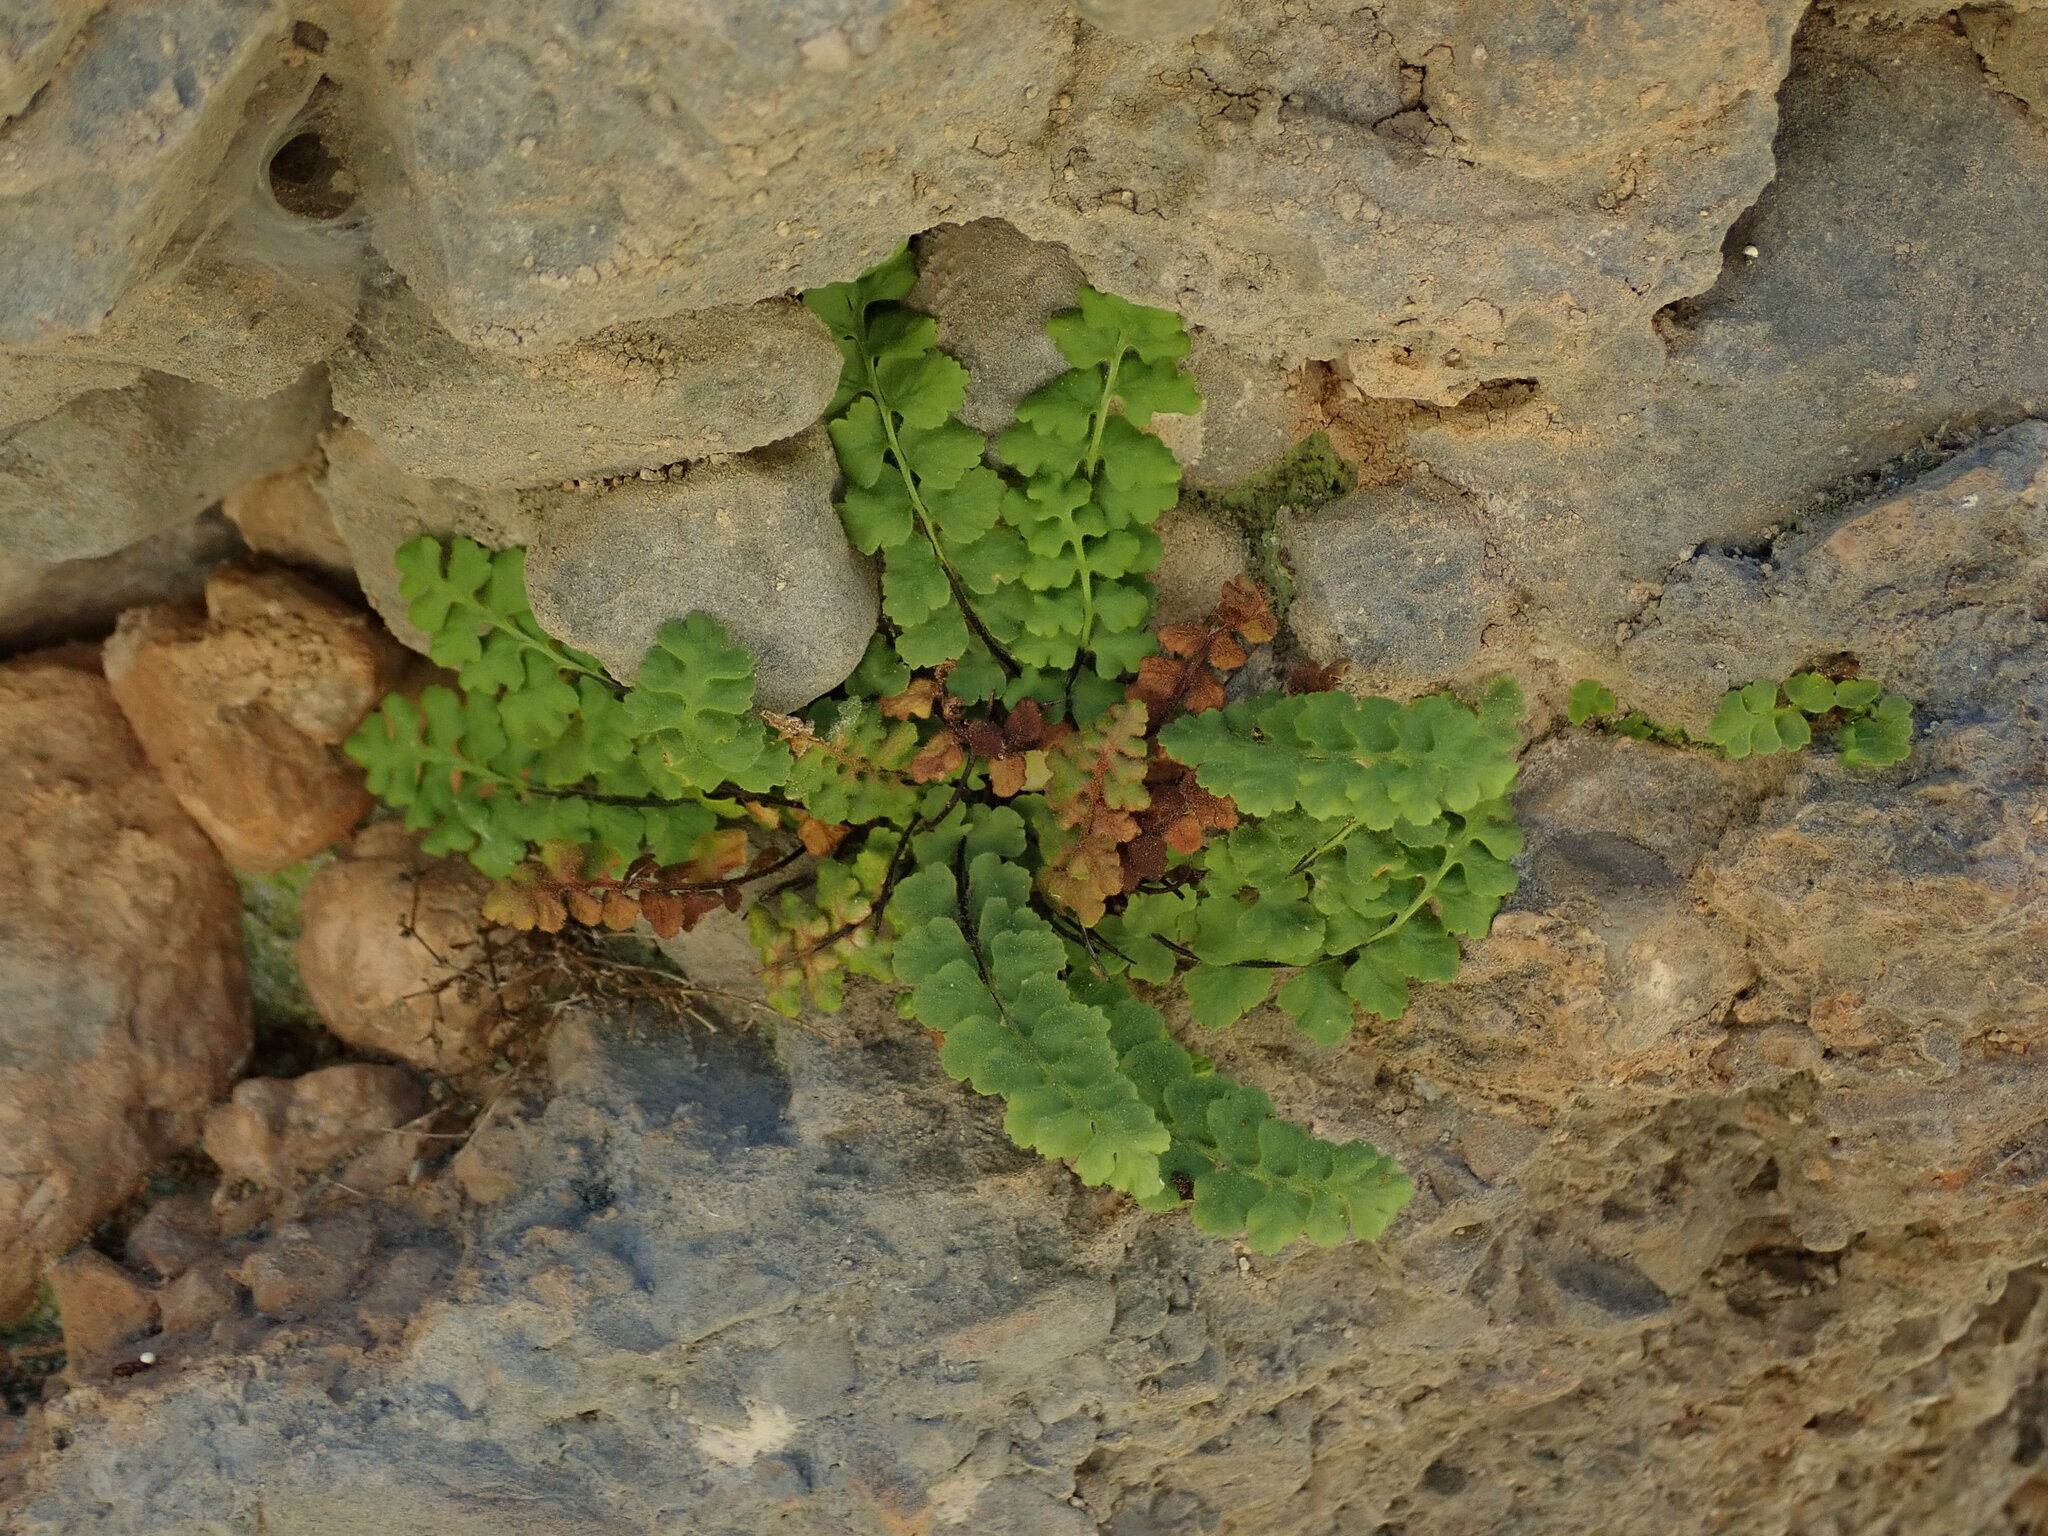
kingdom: Plantae
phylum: Tracheophyta
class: Polypodiopsida
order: Polypodiales
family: Aspleniaceae
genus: Asplenium
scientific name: Asplenium petrarchae
